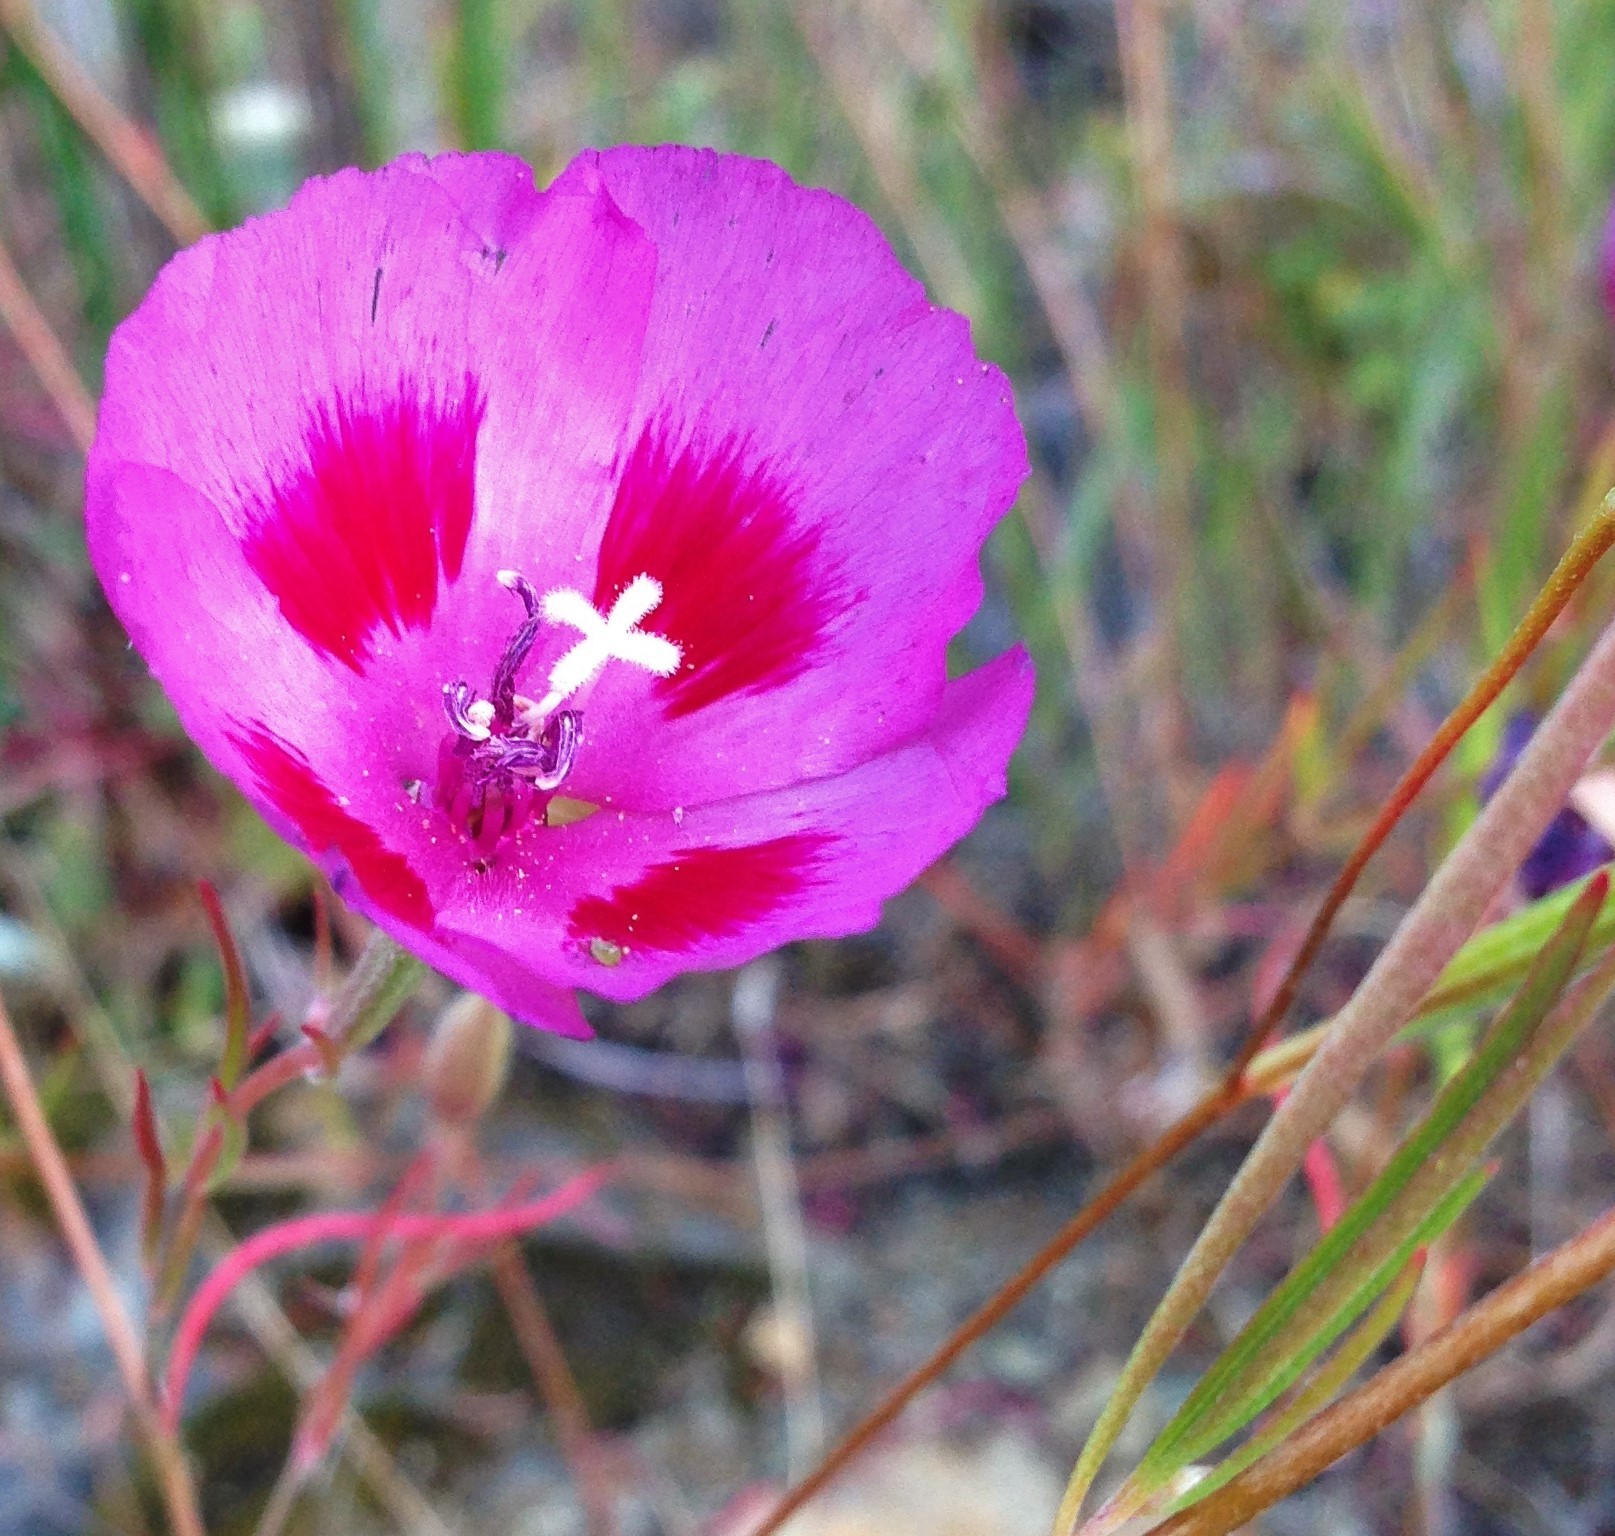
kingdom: Plantae
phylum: Tracheophyta
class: Magnoliopsida
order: Myrtales
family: Onagraceae
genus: Clarkia
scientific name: Clarkia gracilis
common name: Graceful clarkia
